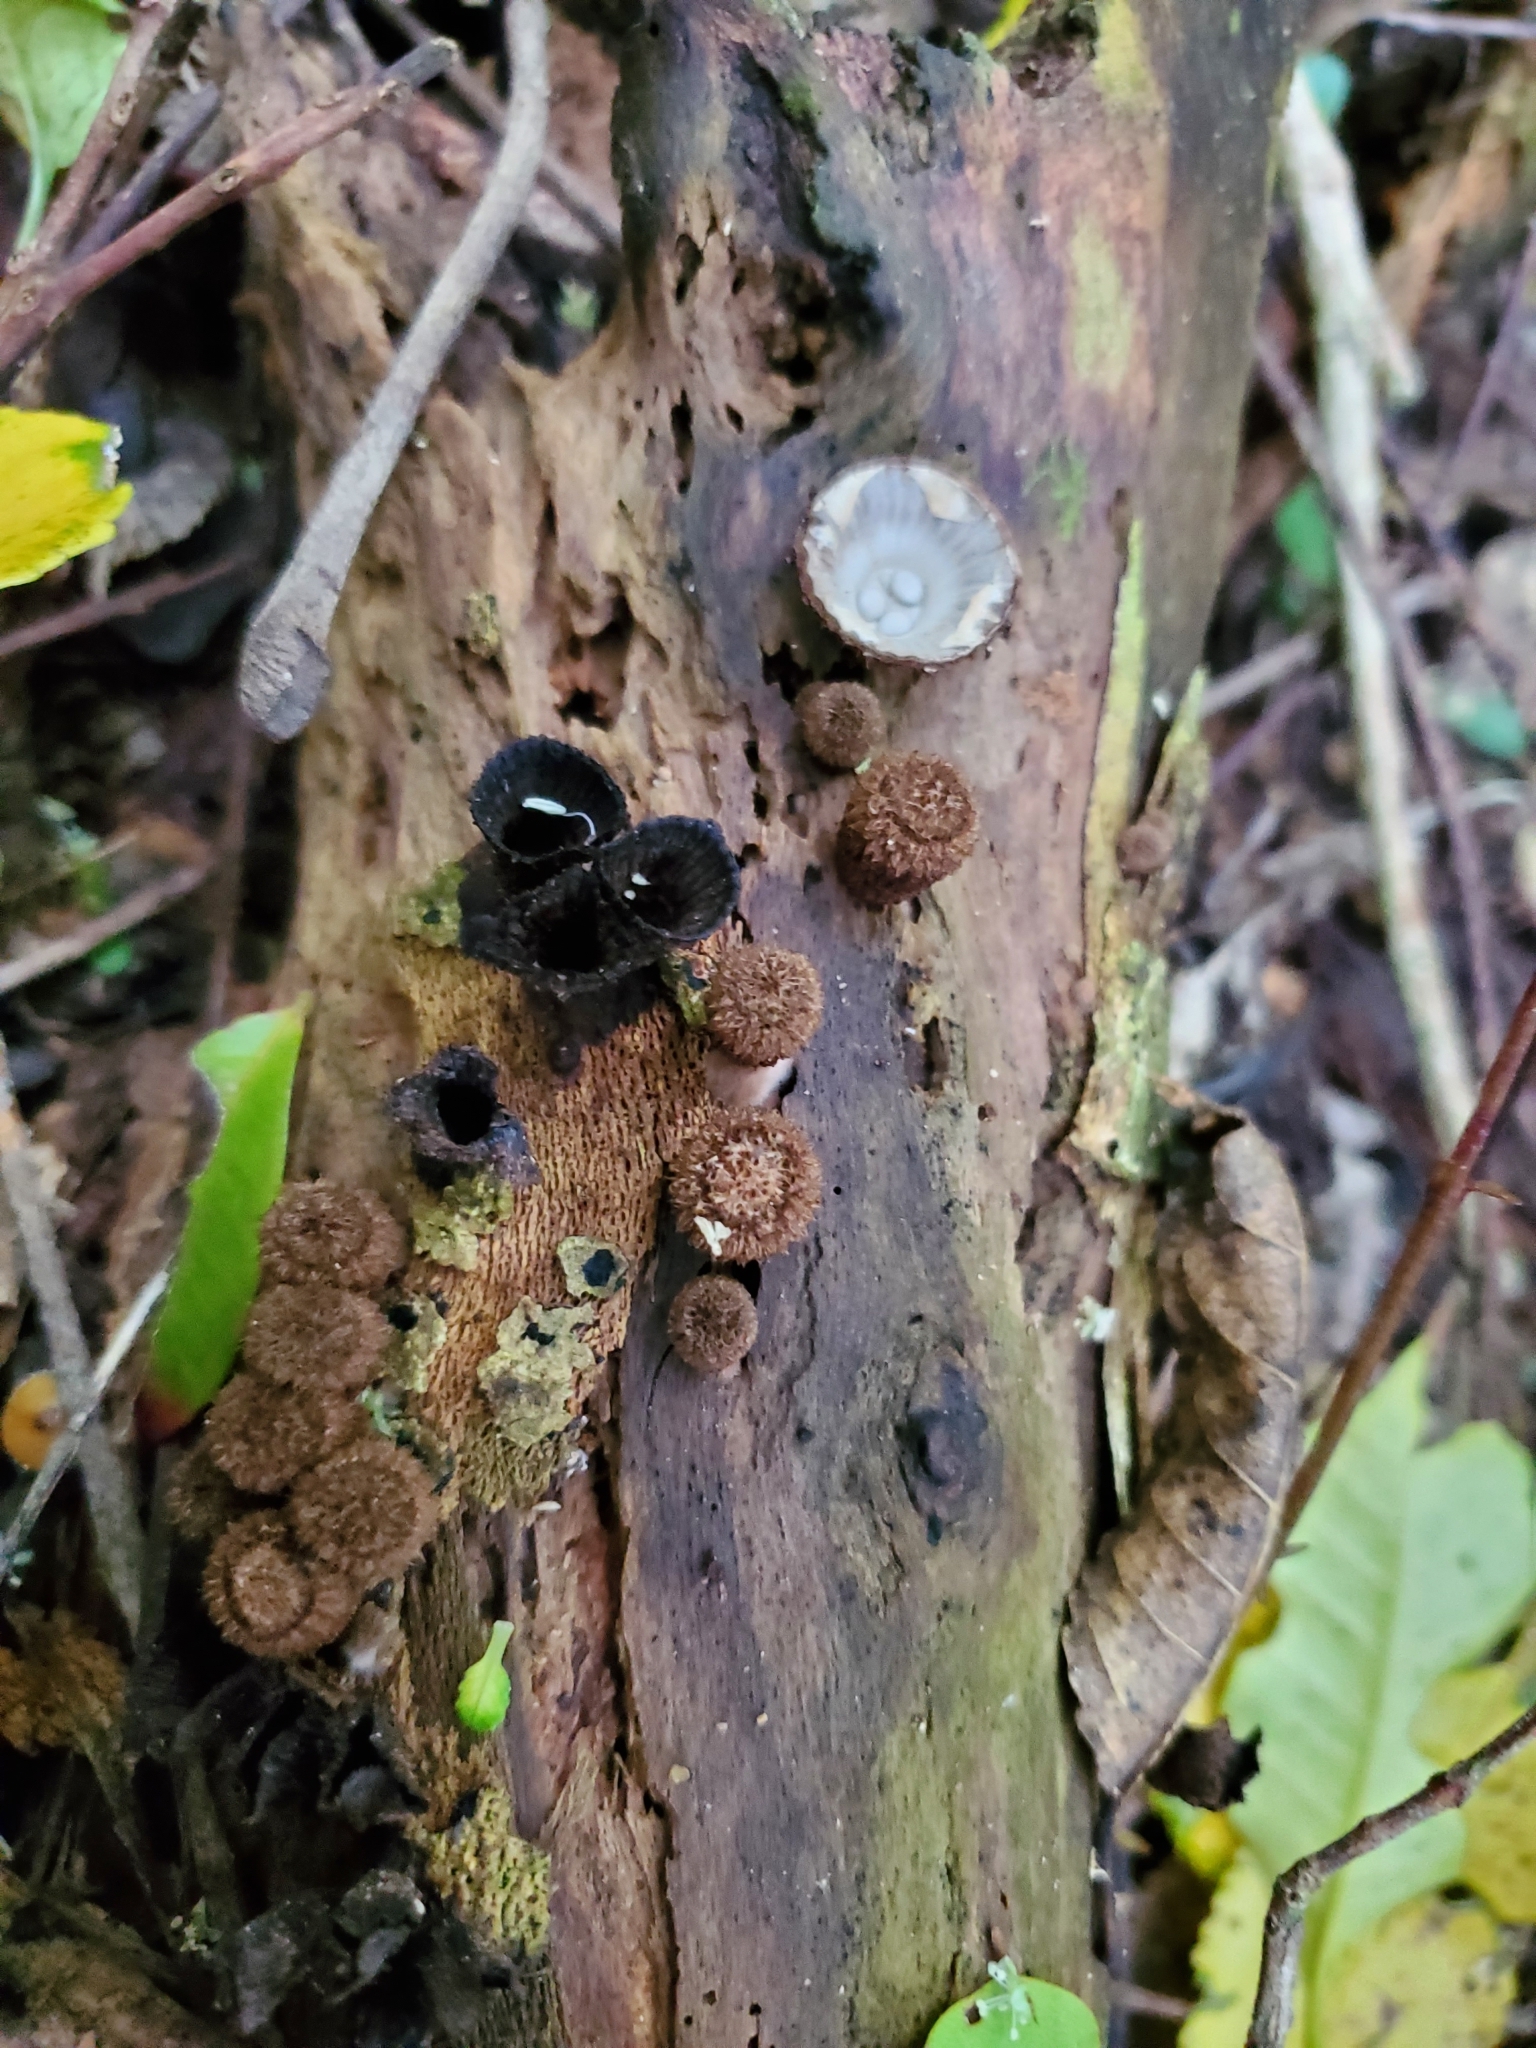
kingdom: Fungi
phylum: Basidiomycota
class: Agaricomycetes
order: Agaricales
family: Agaricaceae
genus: Cyathus
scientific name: Cyathus striatus
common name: Fluted bird's nest
